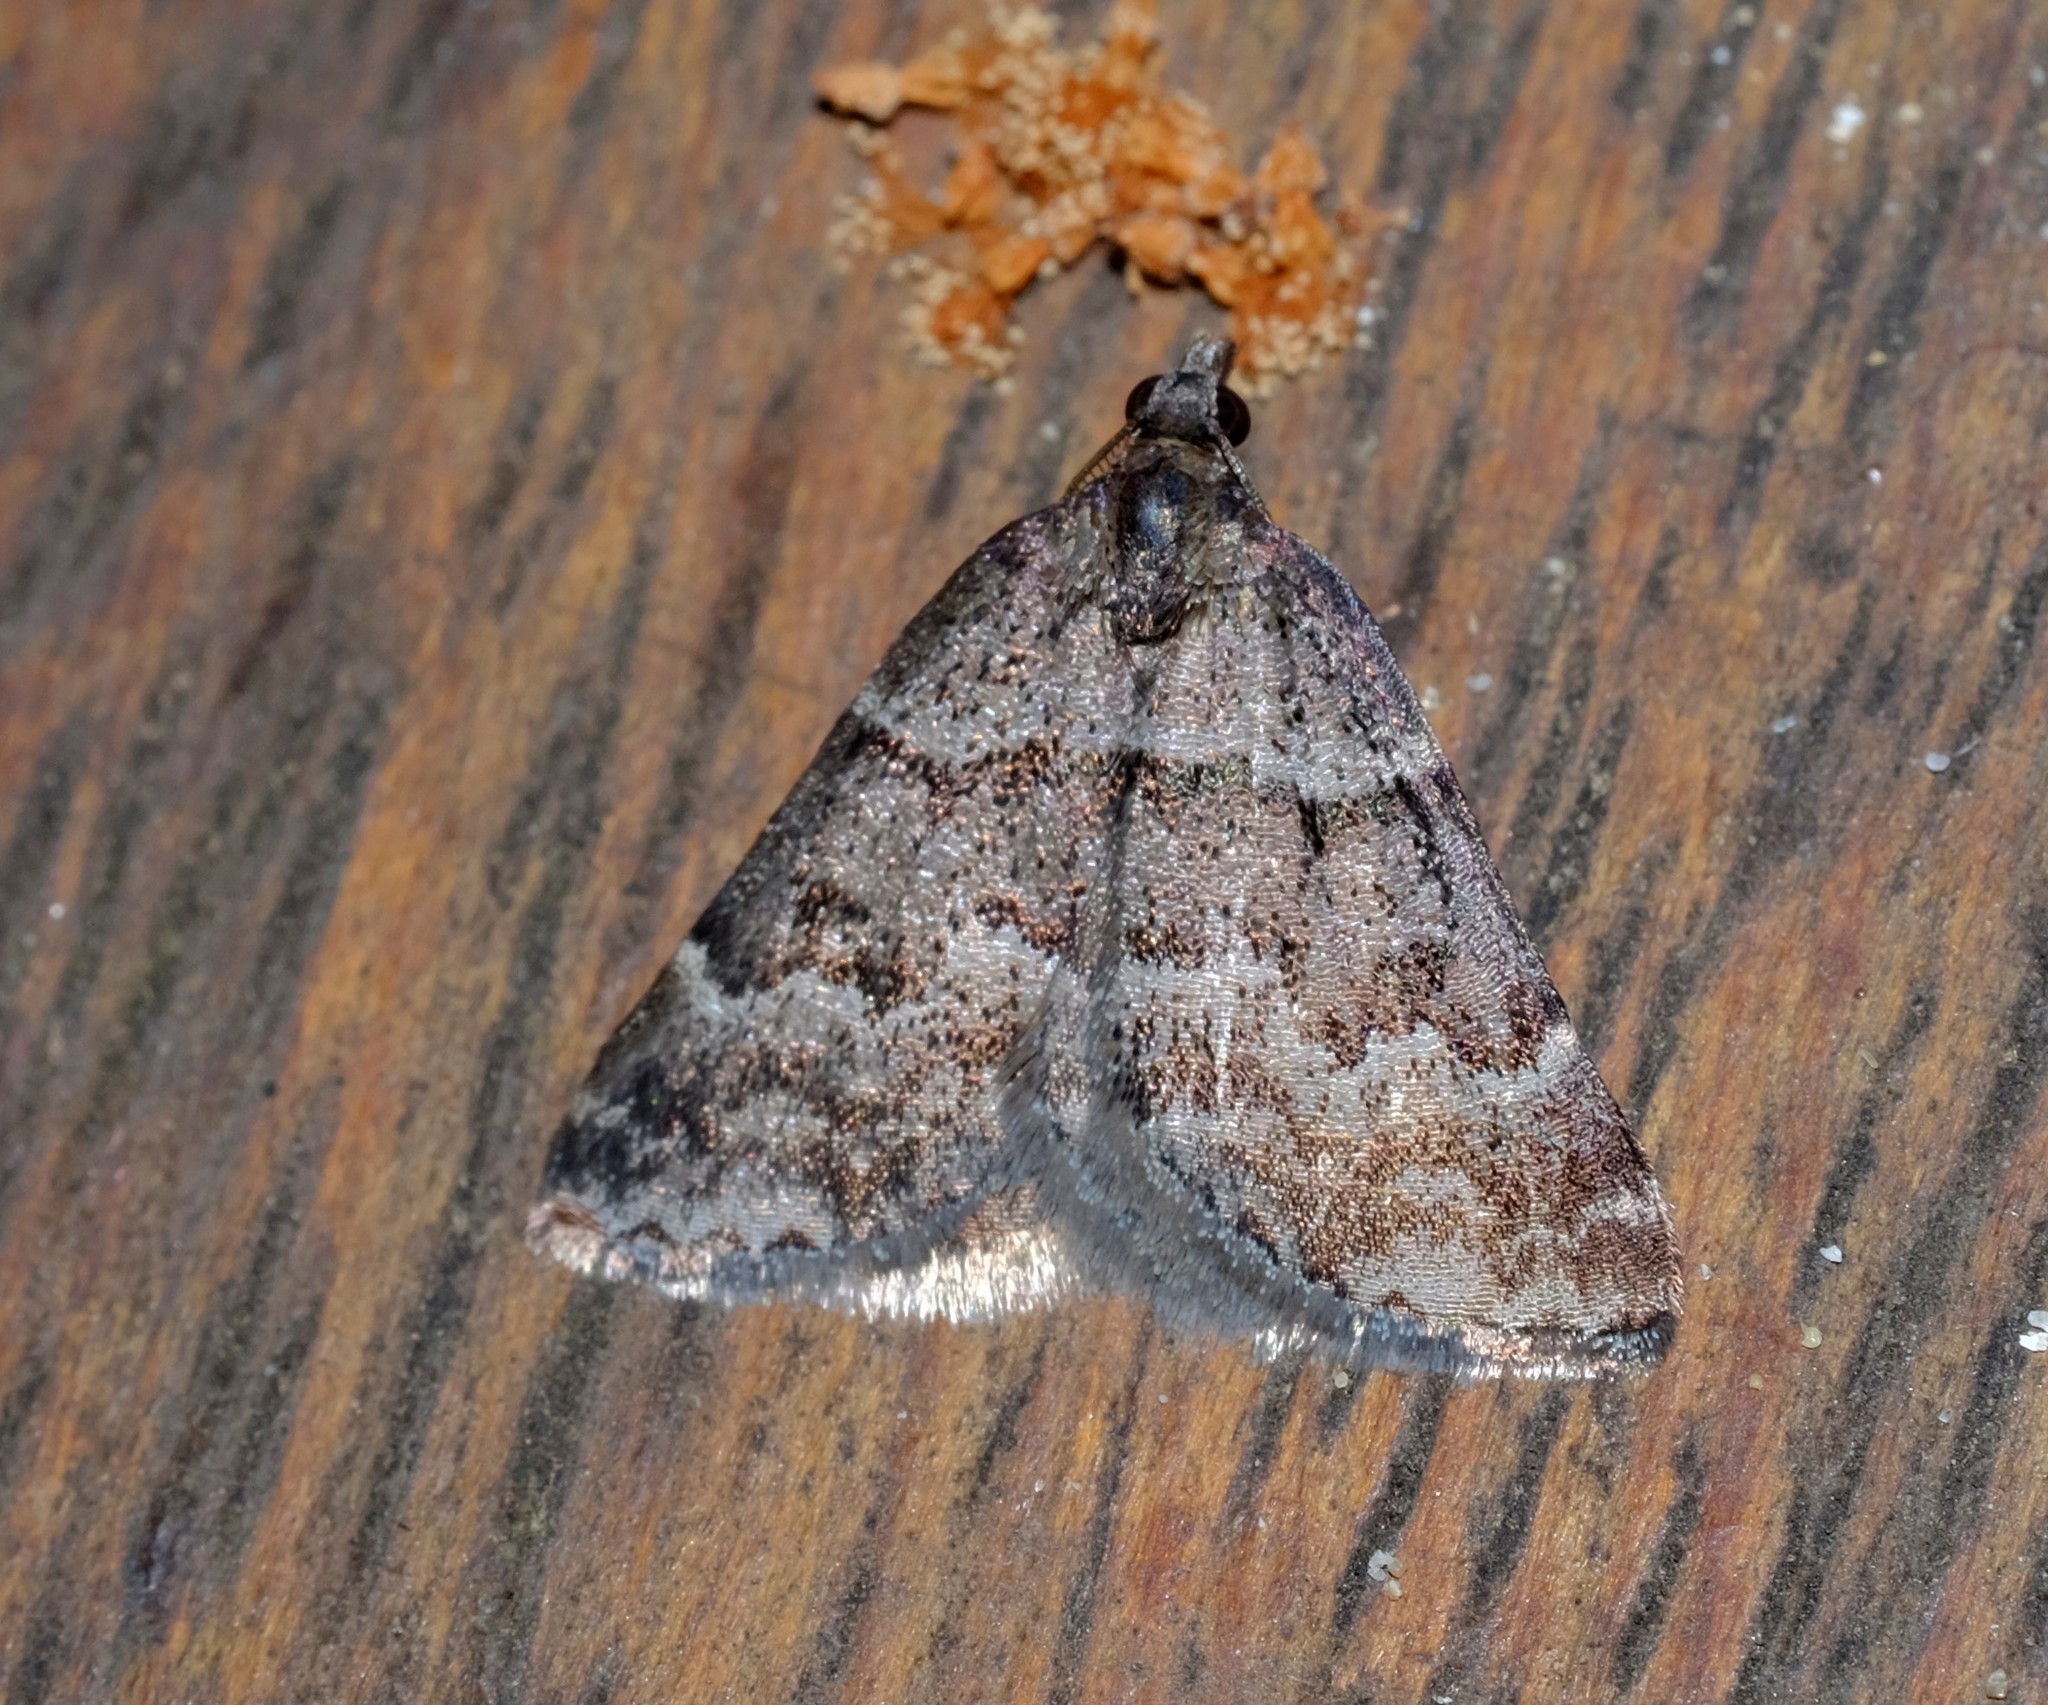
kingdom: Animalia
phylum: Arthropoda
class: Insecta
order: Lepidoptera
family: Geometridae
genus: Dichromodes
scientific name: Dichromodes ainaria
